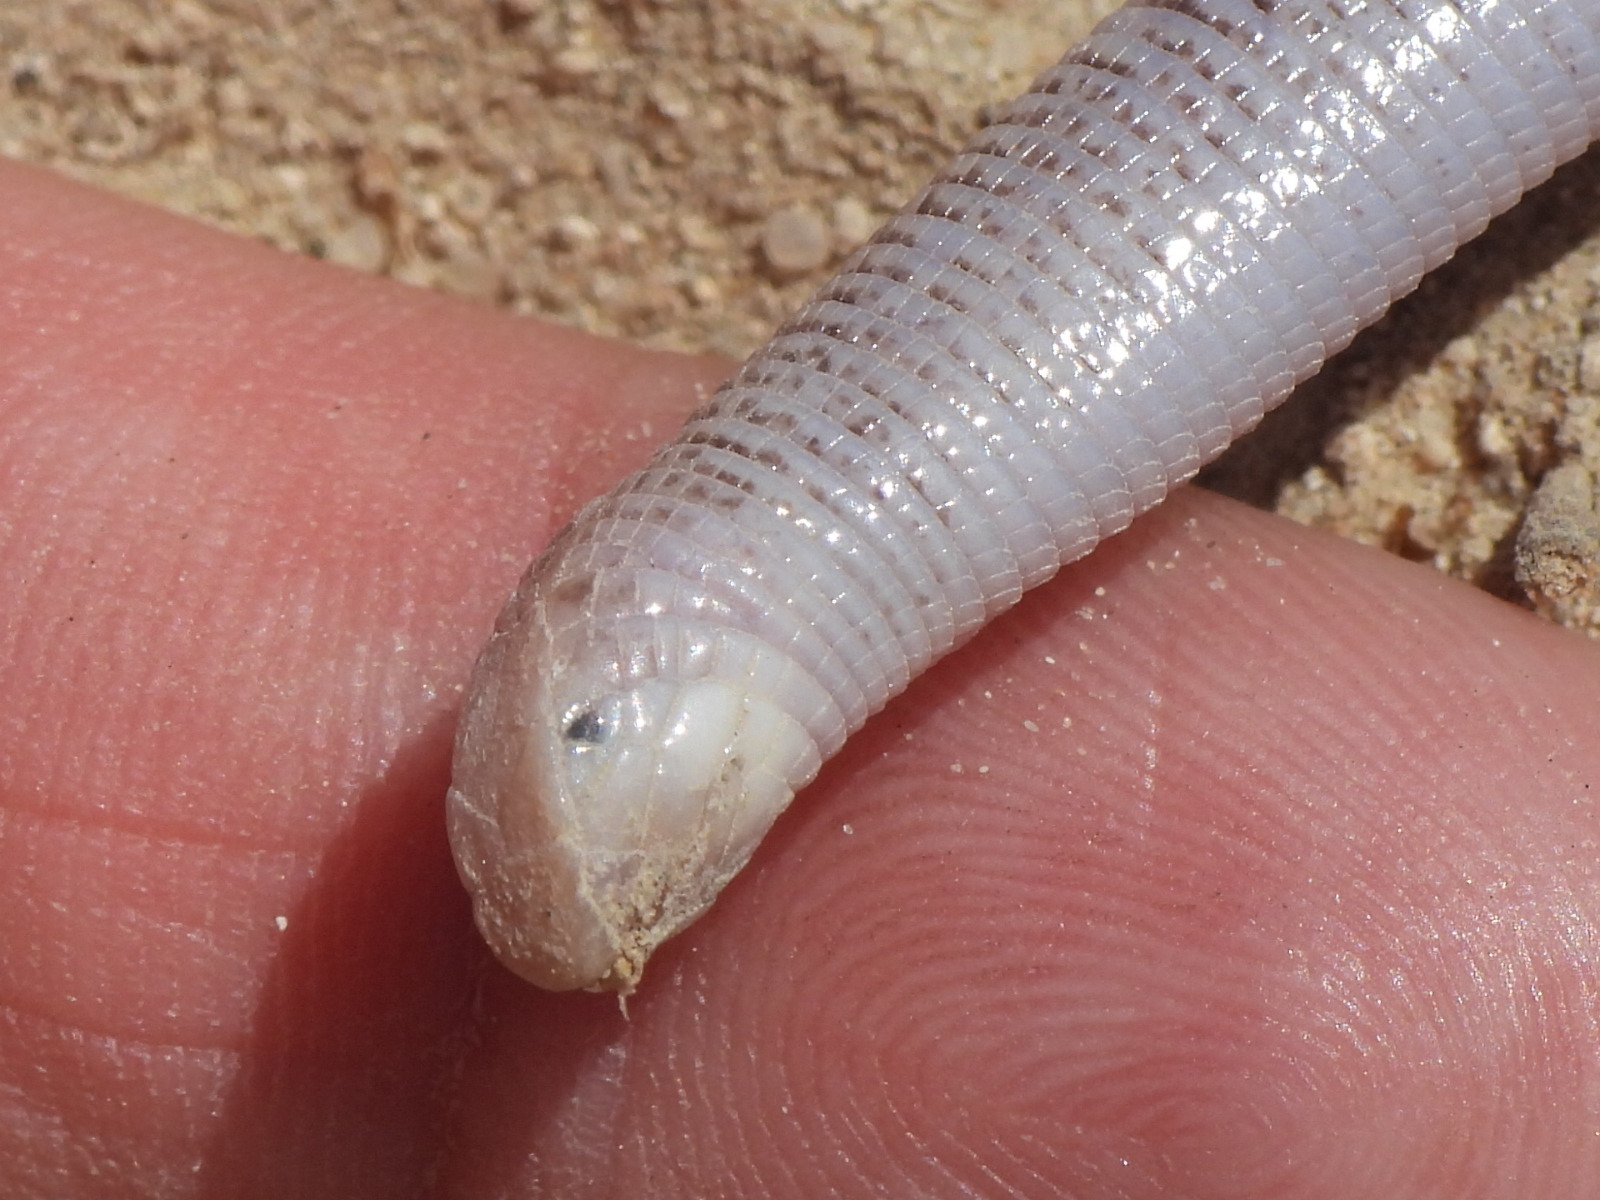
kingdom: Animalia
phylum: Chordata
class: Squamata
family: Trogonophidae
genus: Diplometopon
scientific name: Diplometopon zarudnyi
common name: Zarudnyi's worm lizard
